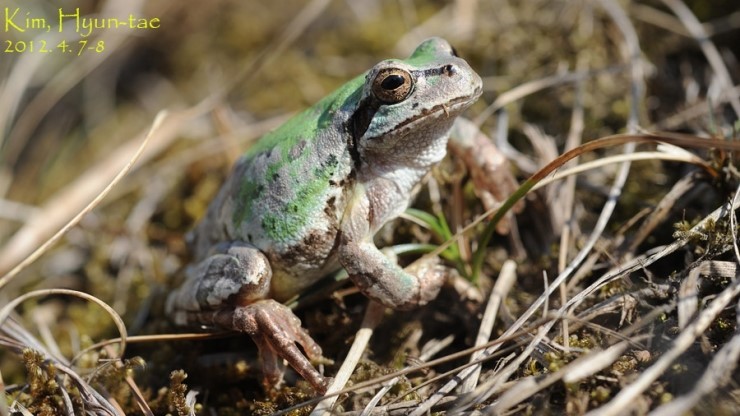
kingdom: Animalia
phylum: Chordata
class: Amphibia
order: Anura
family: Hylidae
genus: Dryophytes
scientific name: Dryophytes japonicus
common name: Japanese treefrog
